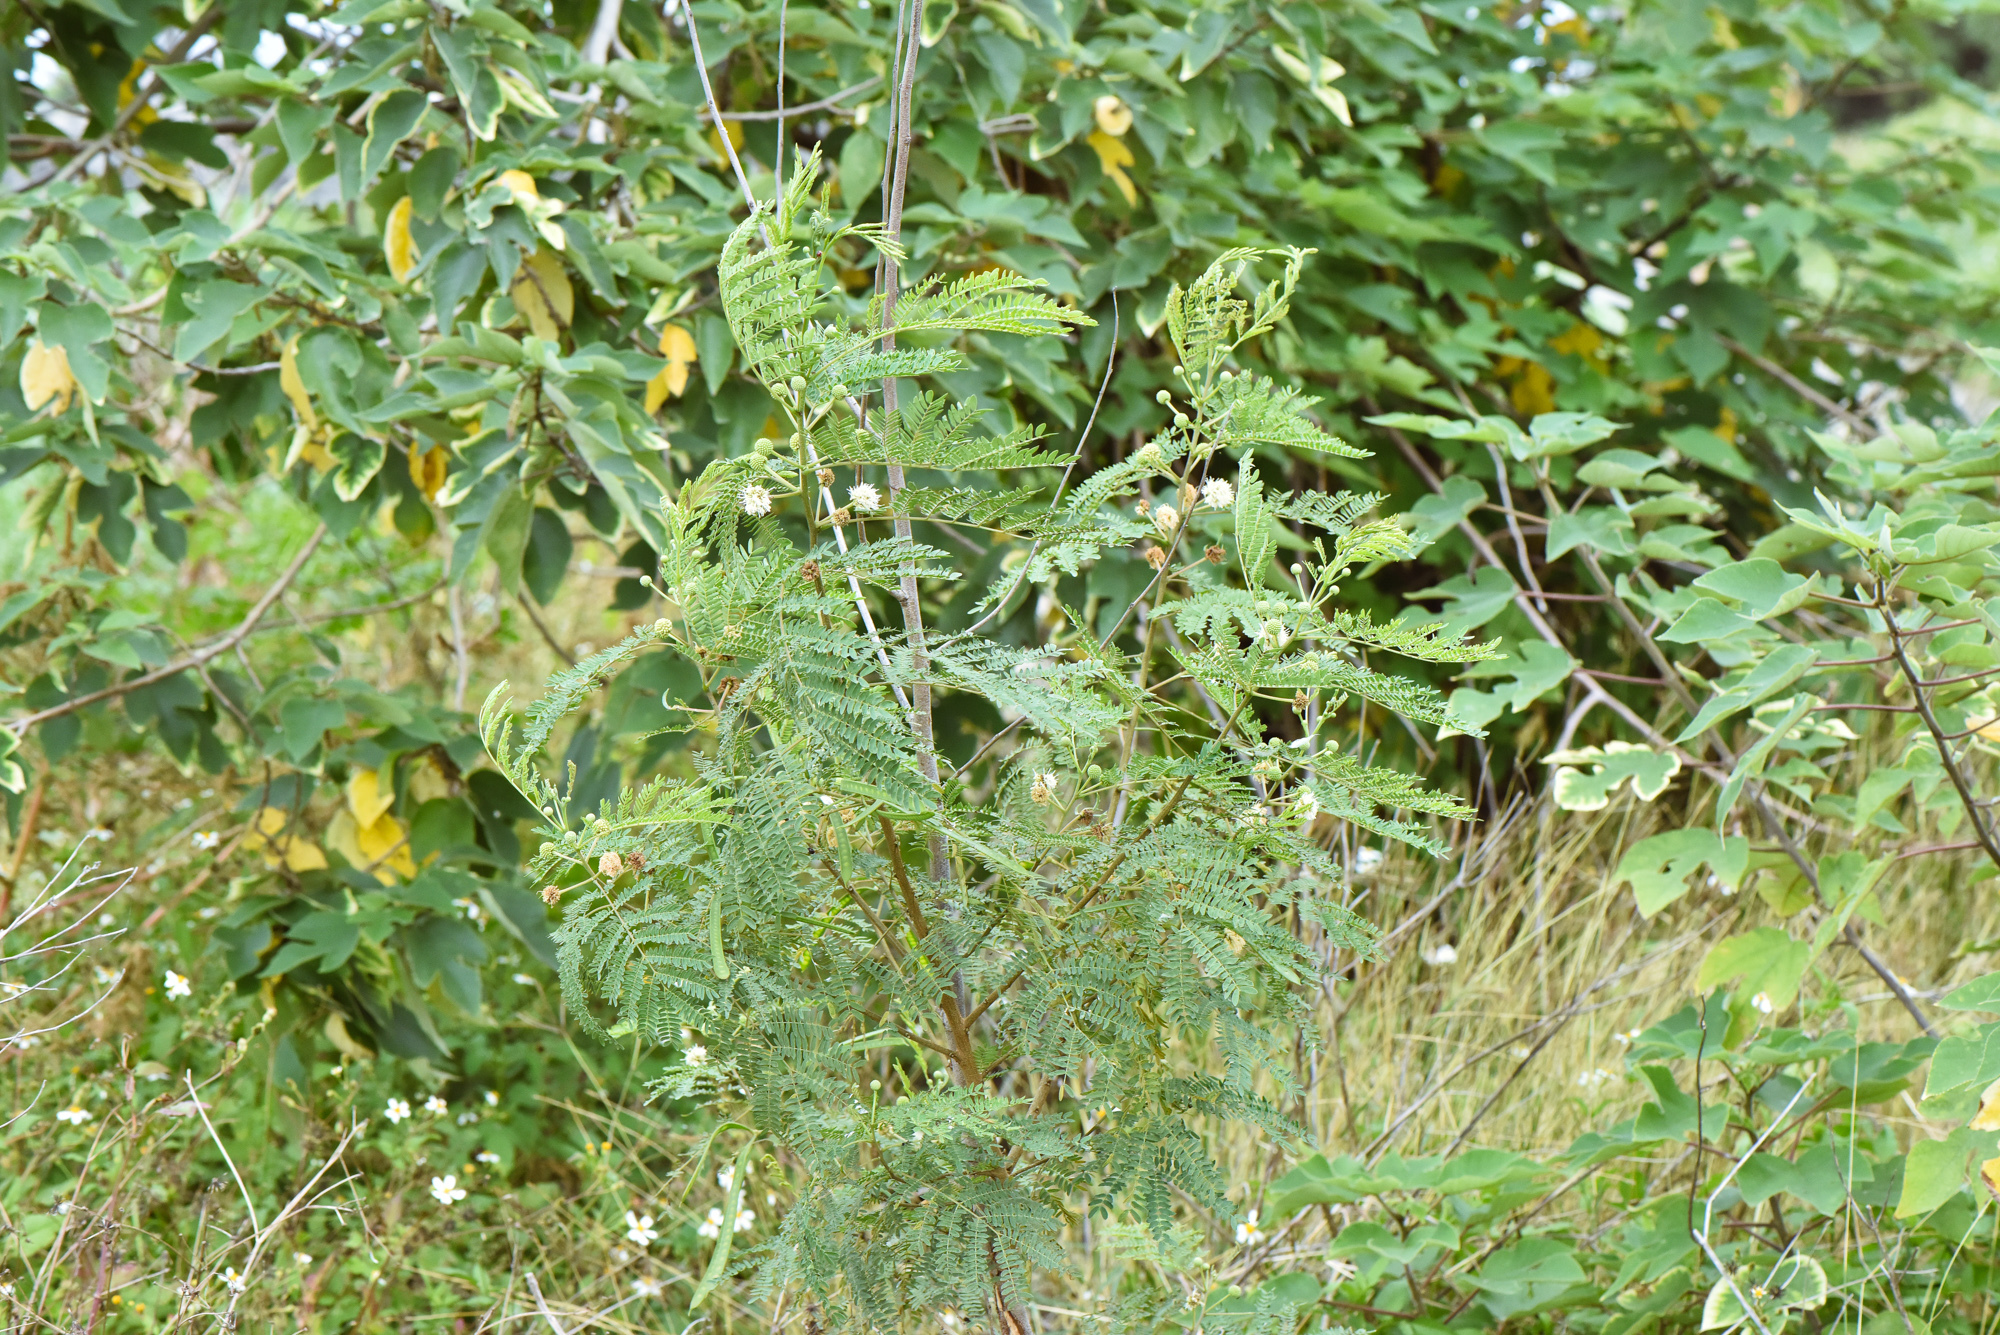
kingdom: Plantae
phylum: Tracheophyta
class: Magnoliopsida
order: Fabales
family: Fabaceae
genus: Leucaena
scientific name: Leucaena leucocephala
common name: White leadtree
